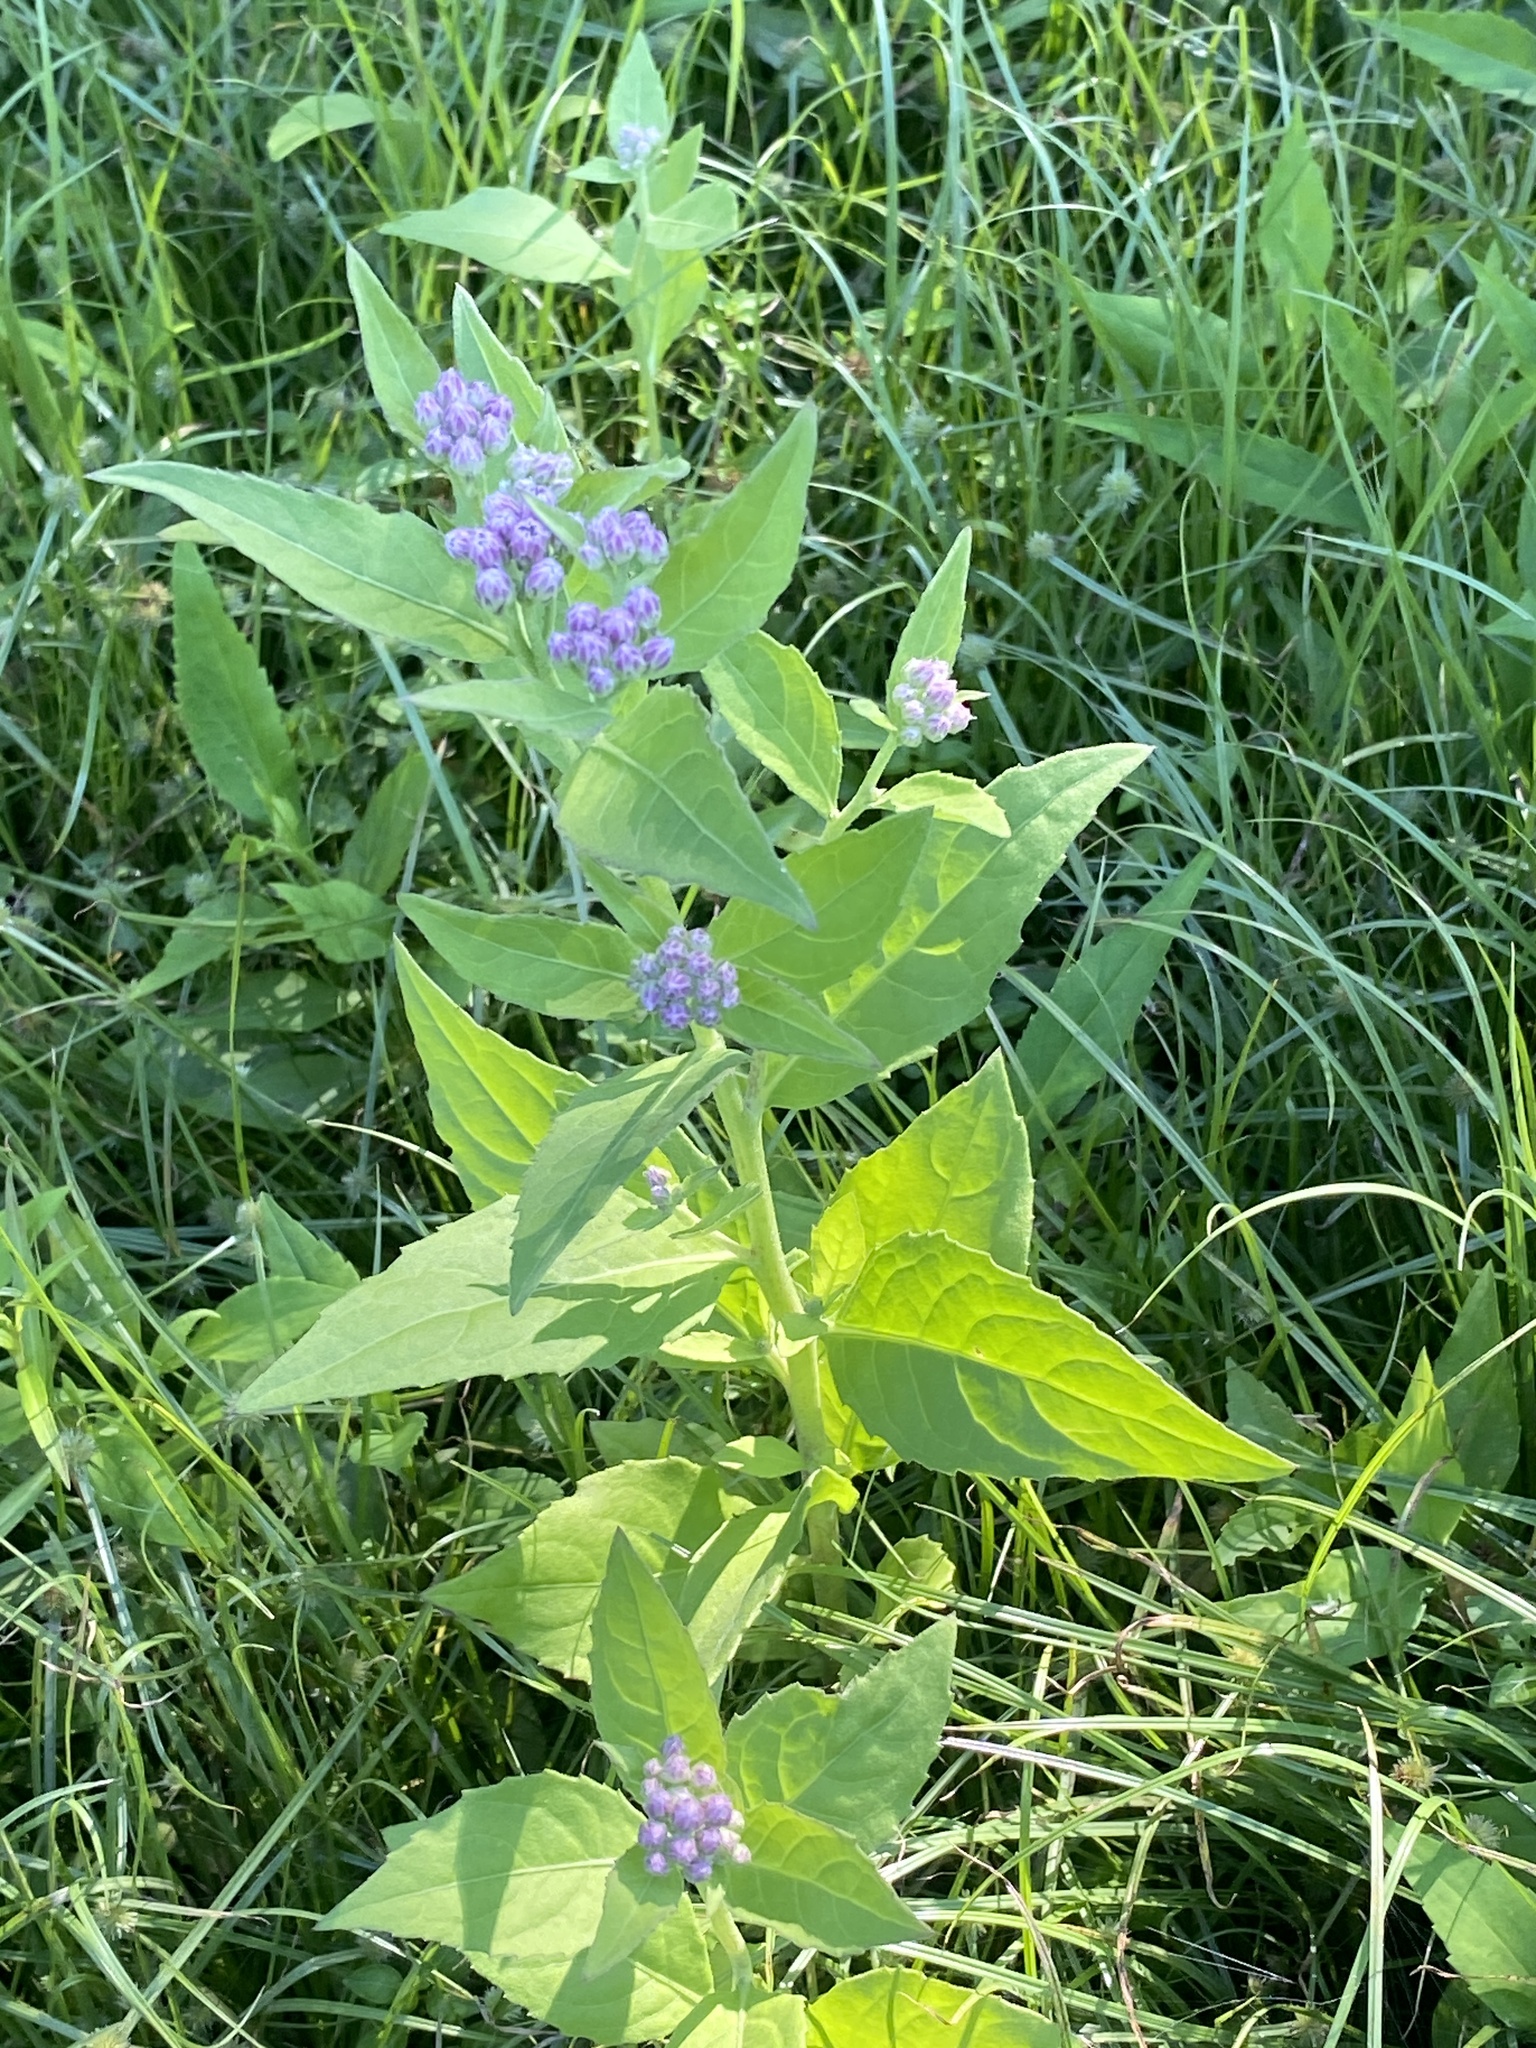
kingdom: Plantae
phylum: Tracheophyta
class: Magnoliopsida
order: Asterales
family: Asteraceae
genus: Pluchea
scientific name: Pluchea odorata
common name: Saltmarsh fleabane
